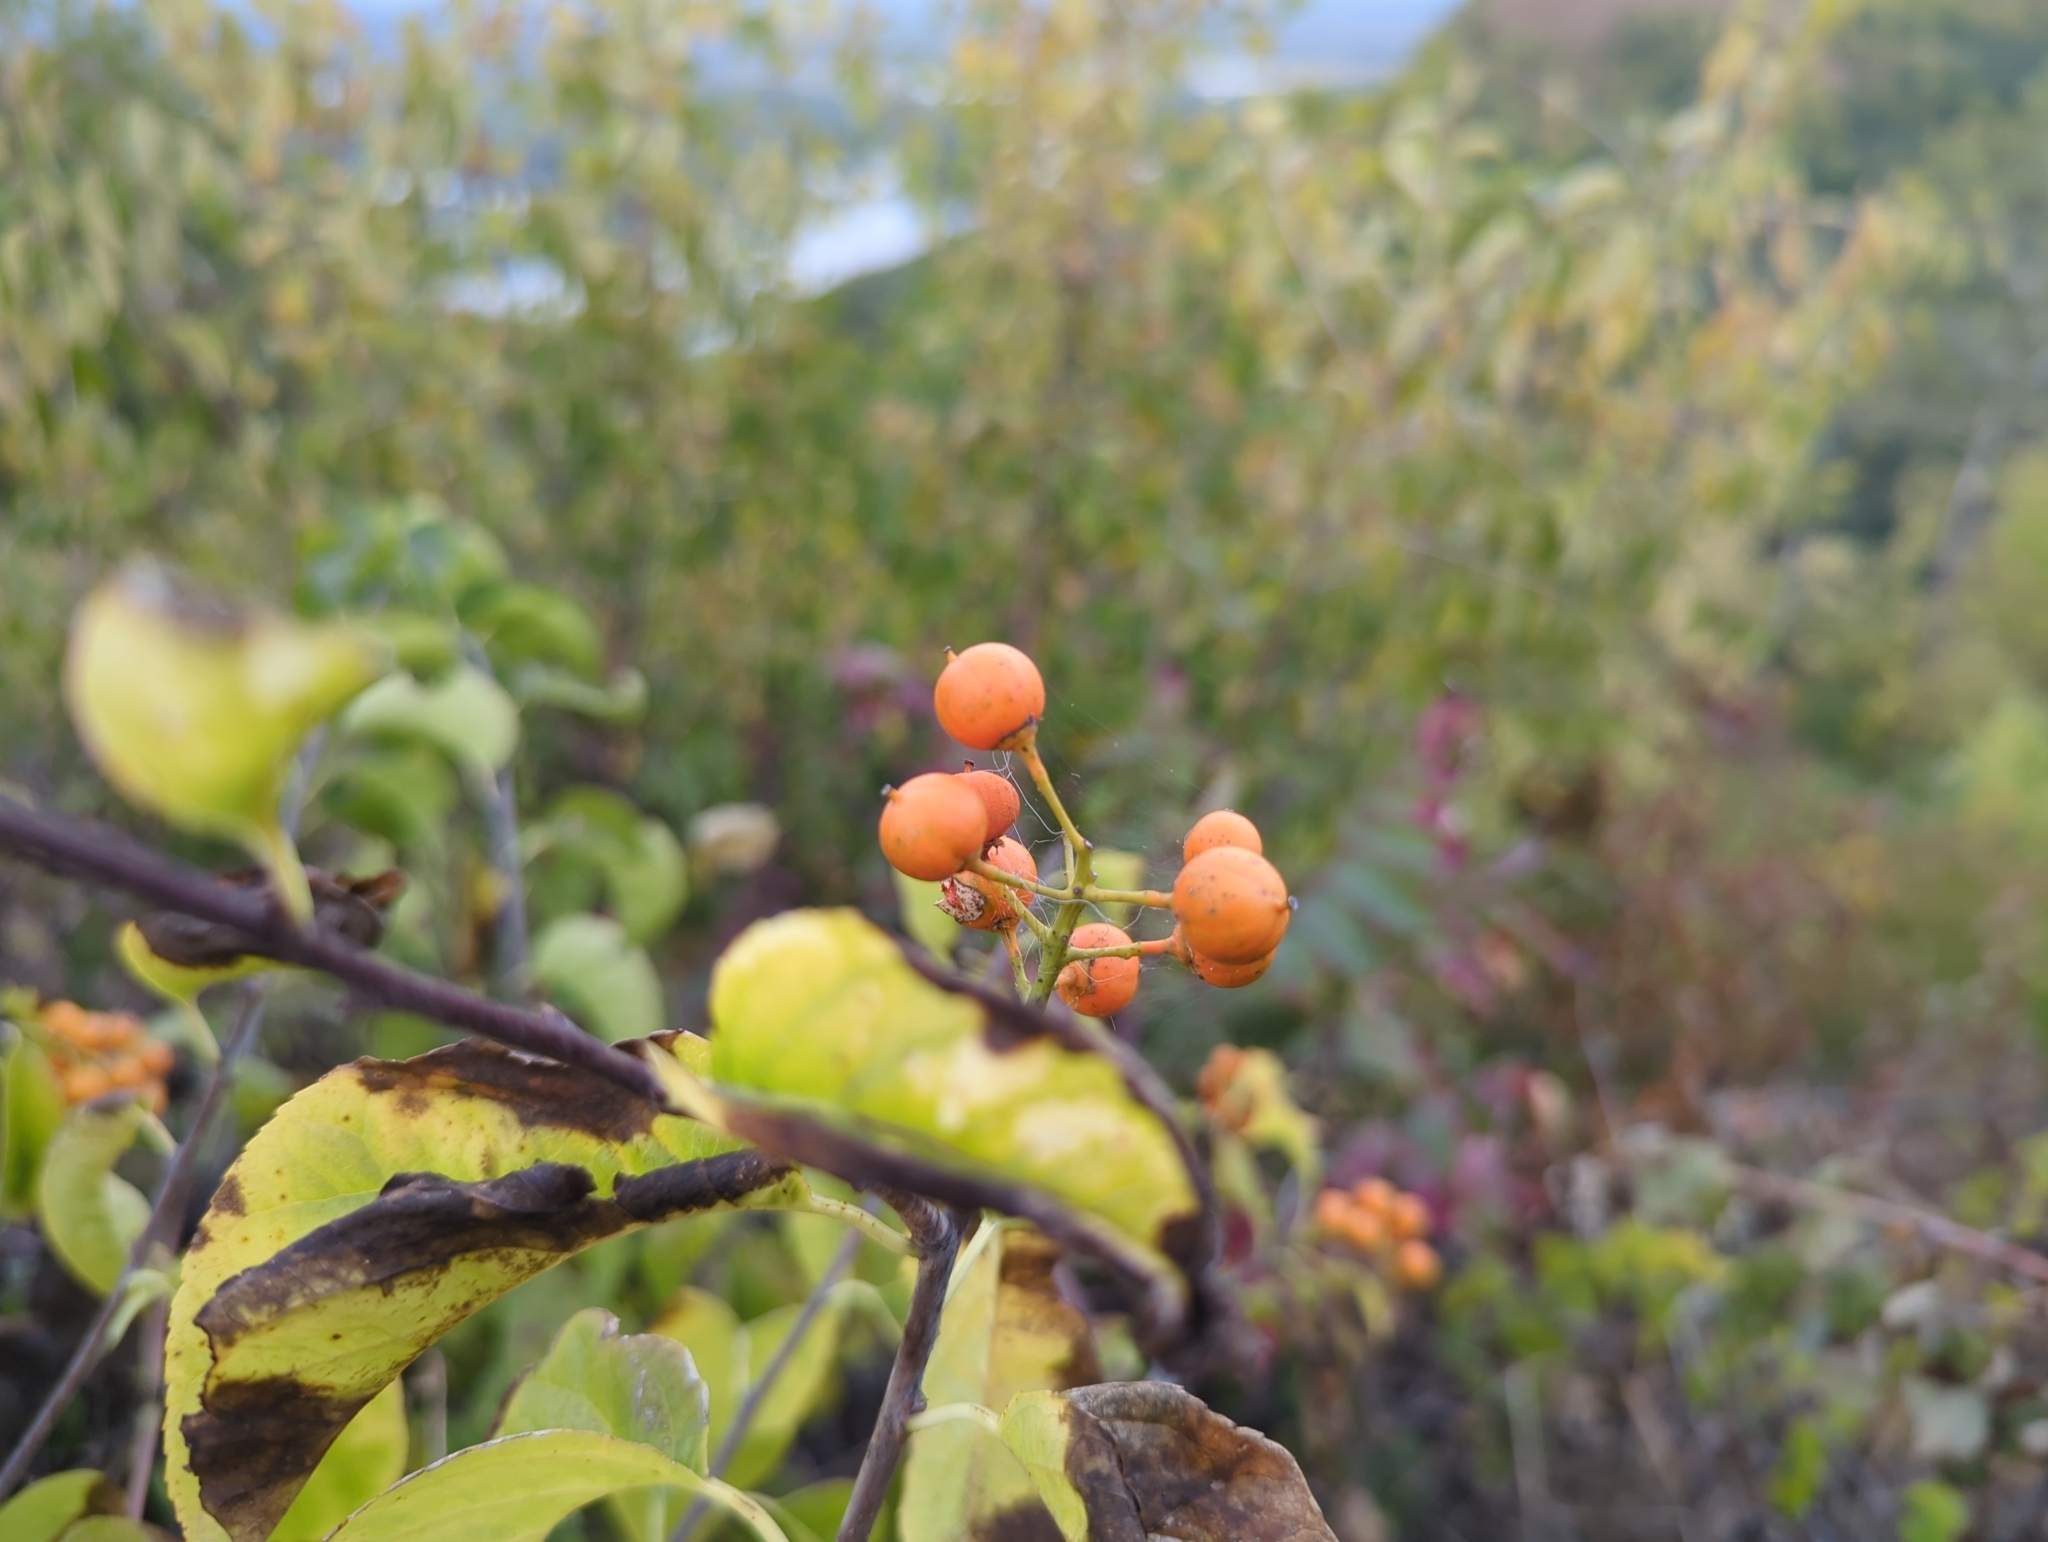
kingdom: Plantae
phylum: Tracheophyta
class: Magnoliopsida
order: Celastrales
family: Celastraceae
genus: Celastrus
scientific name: Celastrus scandens
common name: American bittersweet
